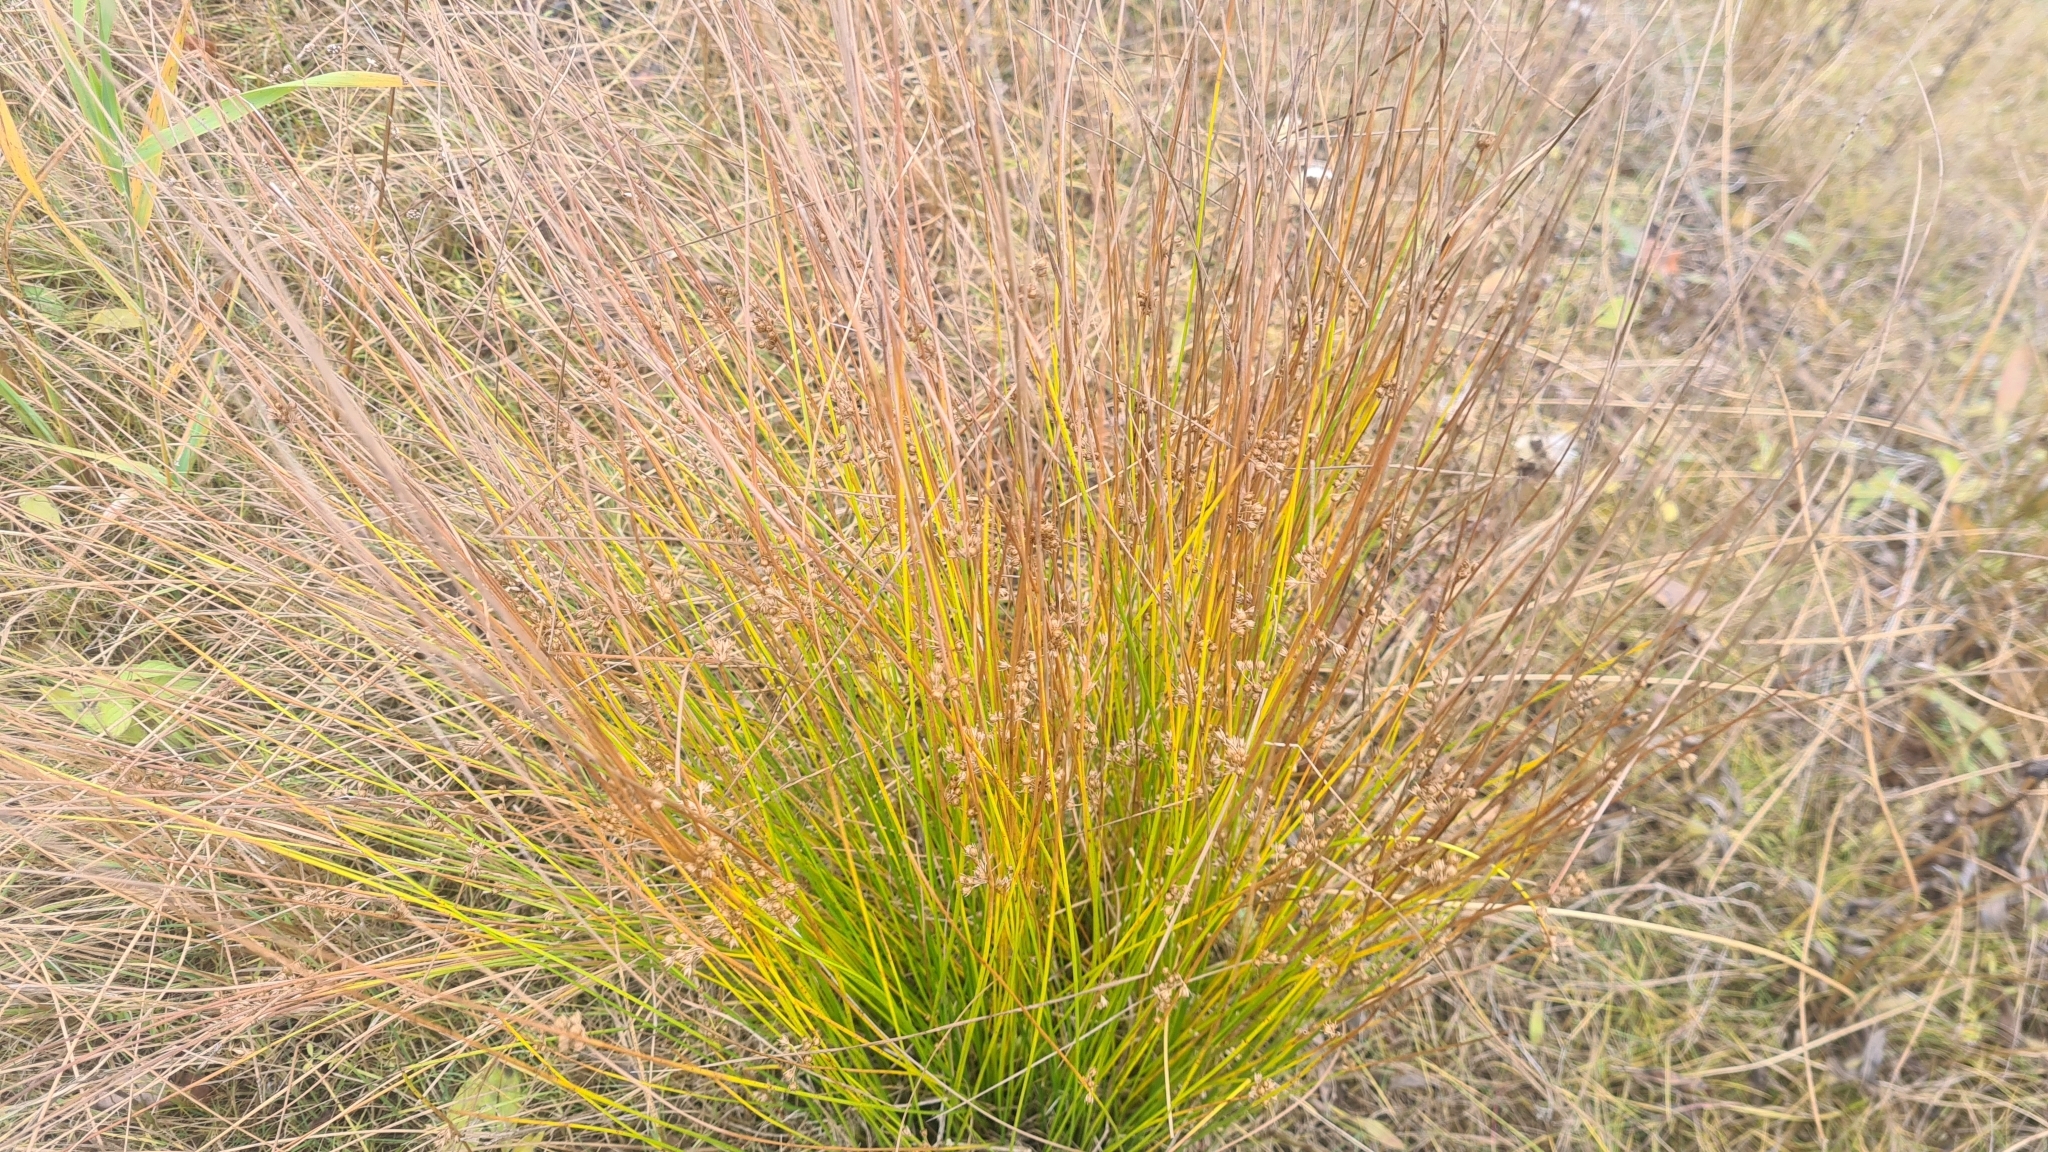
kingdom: Plantae
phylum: Tracheophyta
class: Liliopsida
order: Poales
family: Juncaceae
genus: Juncus
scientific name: Juncus filiformis
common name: Thread rush
